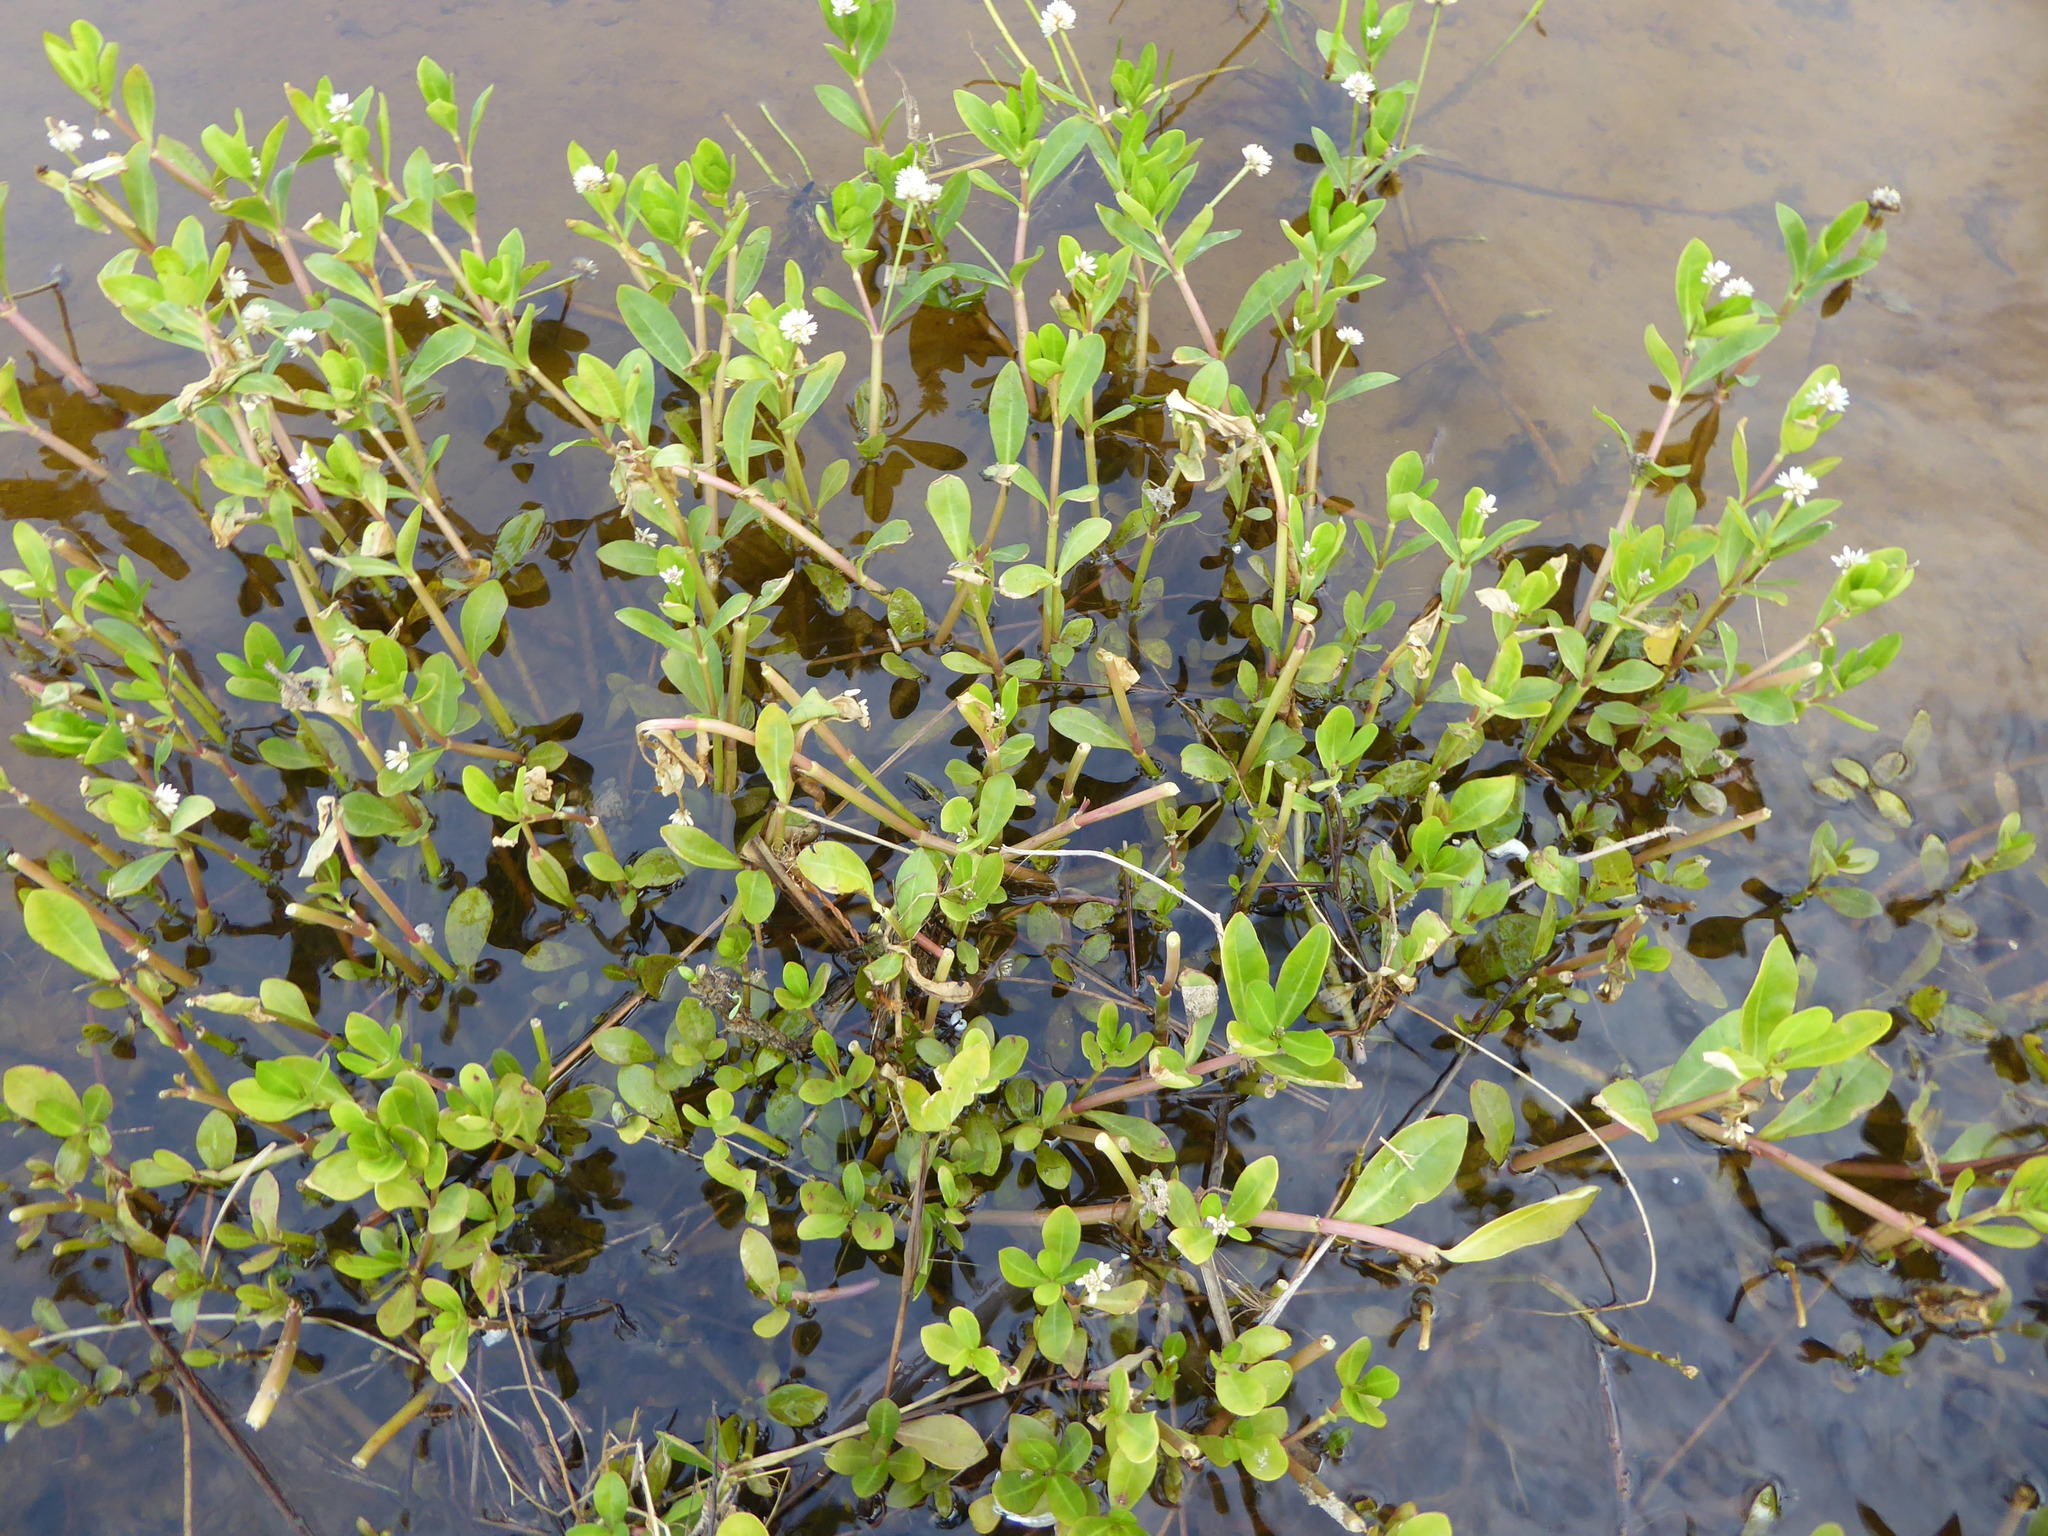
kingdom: Plantae
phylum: Tracheophyta
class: Magnoliopsida
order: Caryophyllales
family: Amaranthaceae
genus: Alternanthera
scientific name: Alternanthera philoxeroides
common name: Alligatorweed
